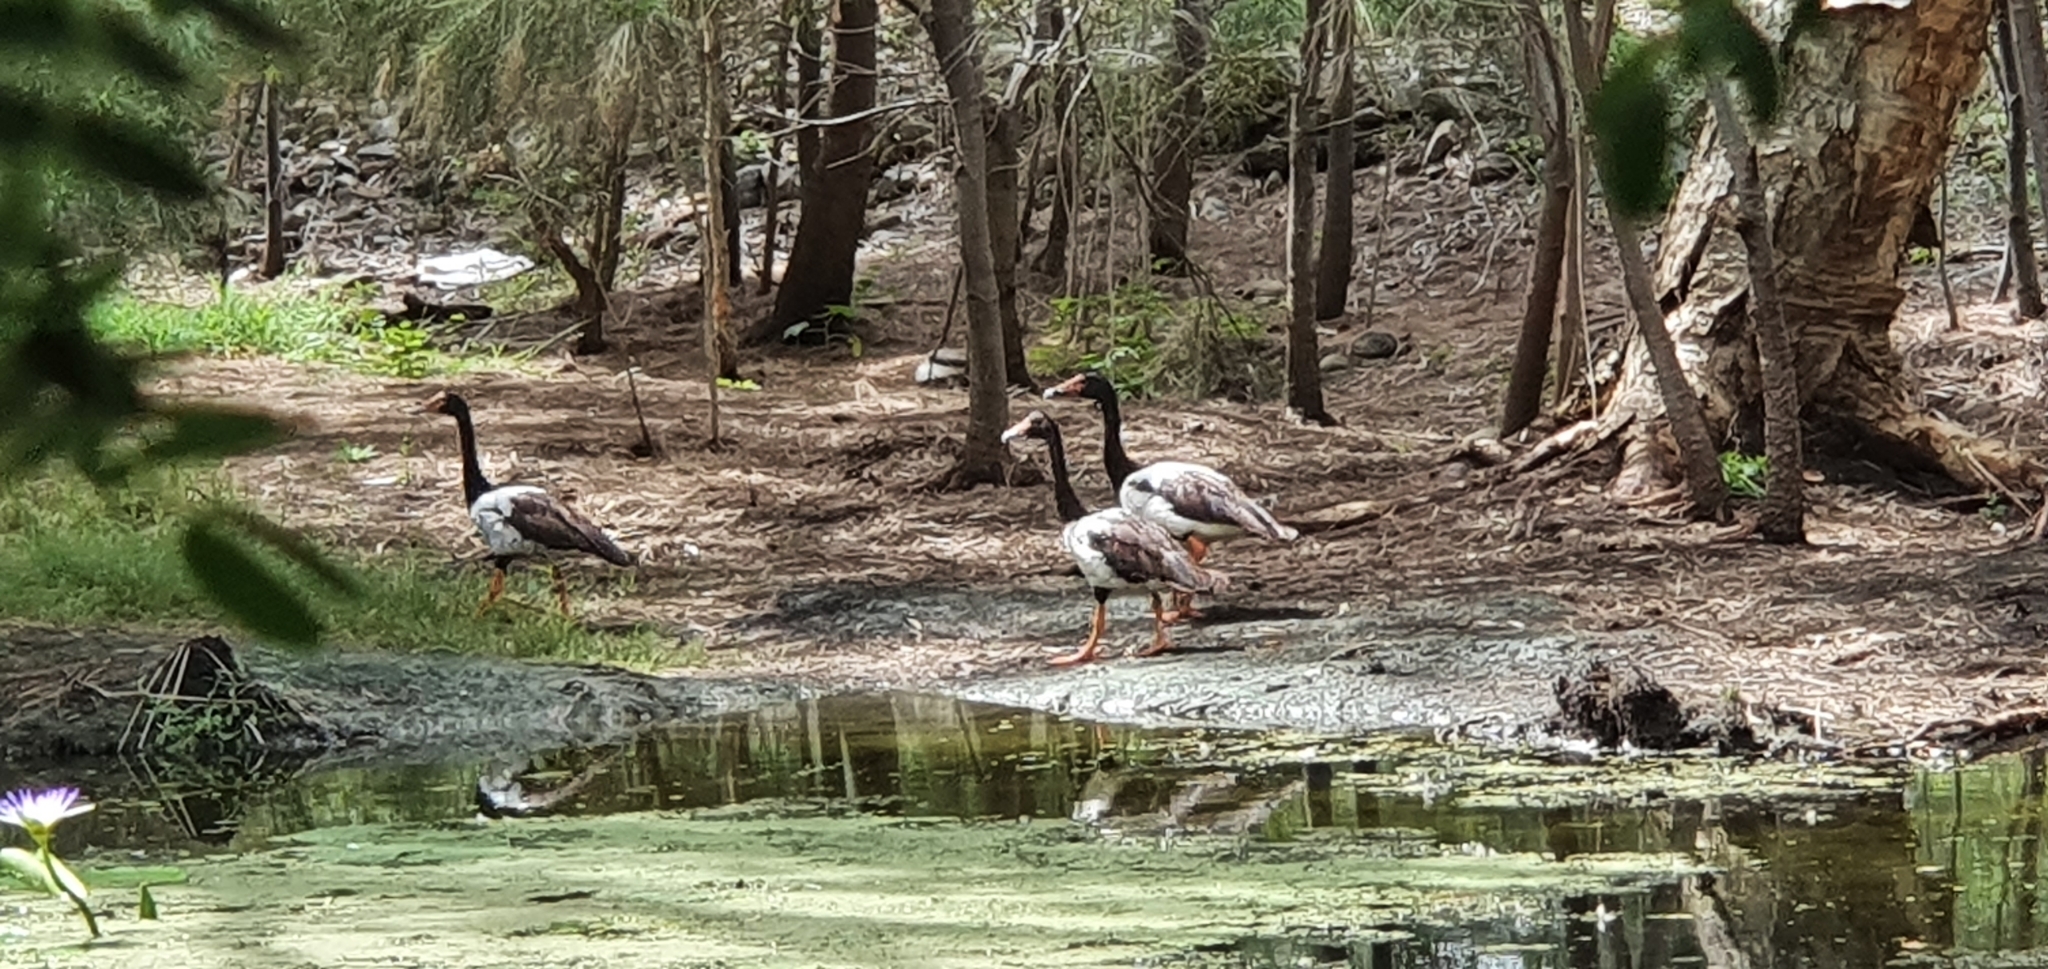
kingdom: Animalia
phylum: Chordata
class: Aves
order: Anseriformes
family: Anseranatidae
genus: Anseranas
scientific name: Anseranas semipalmata
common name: Magpie goose
